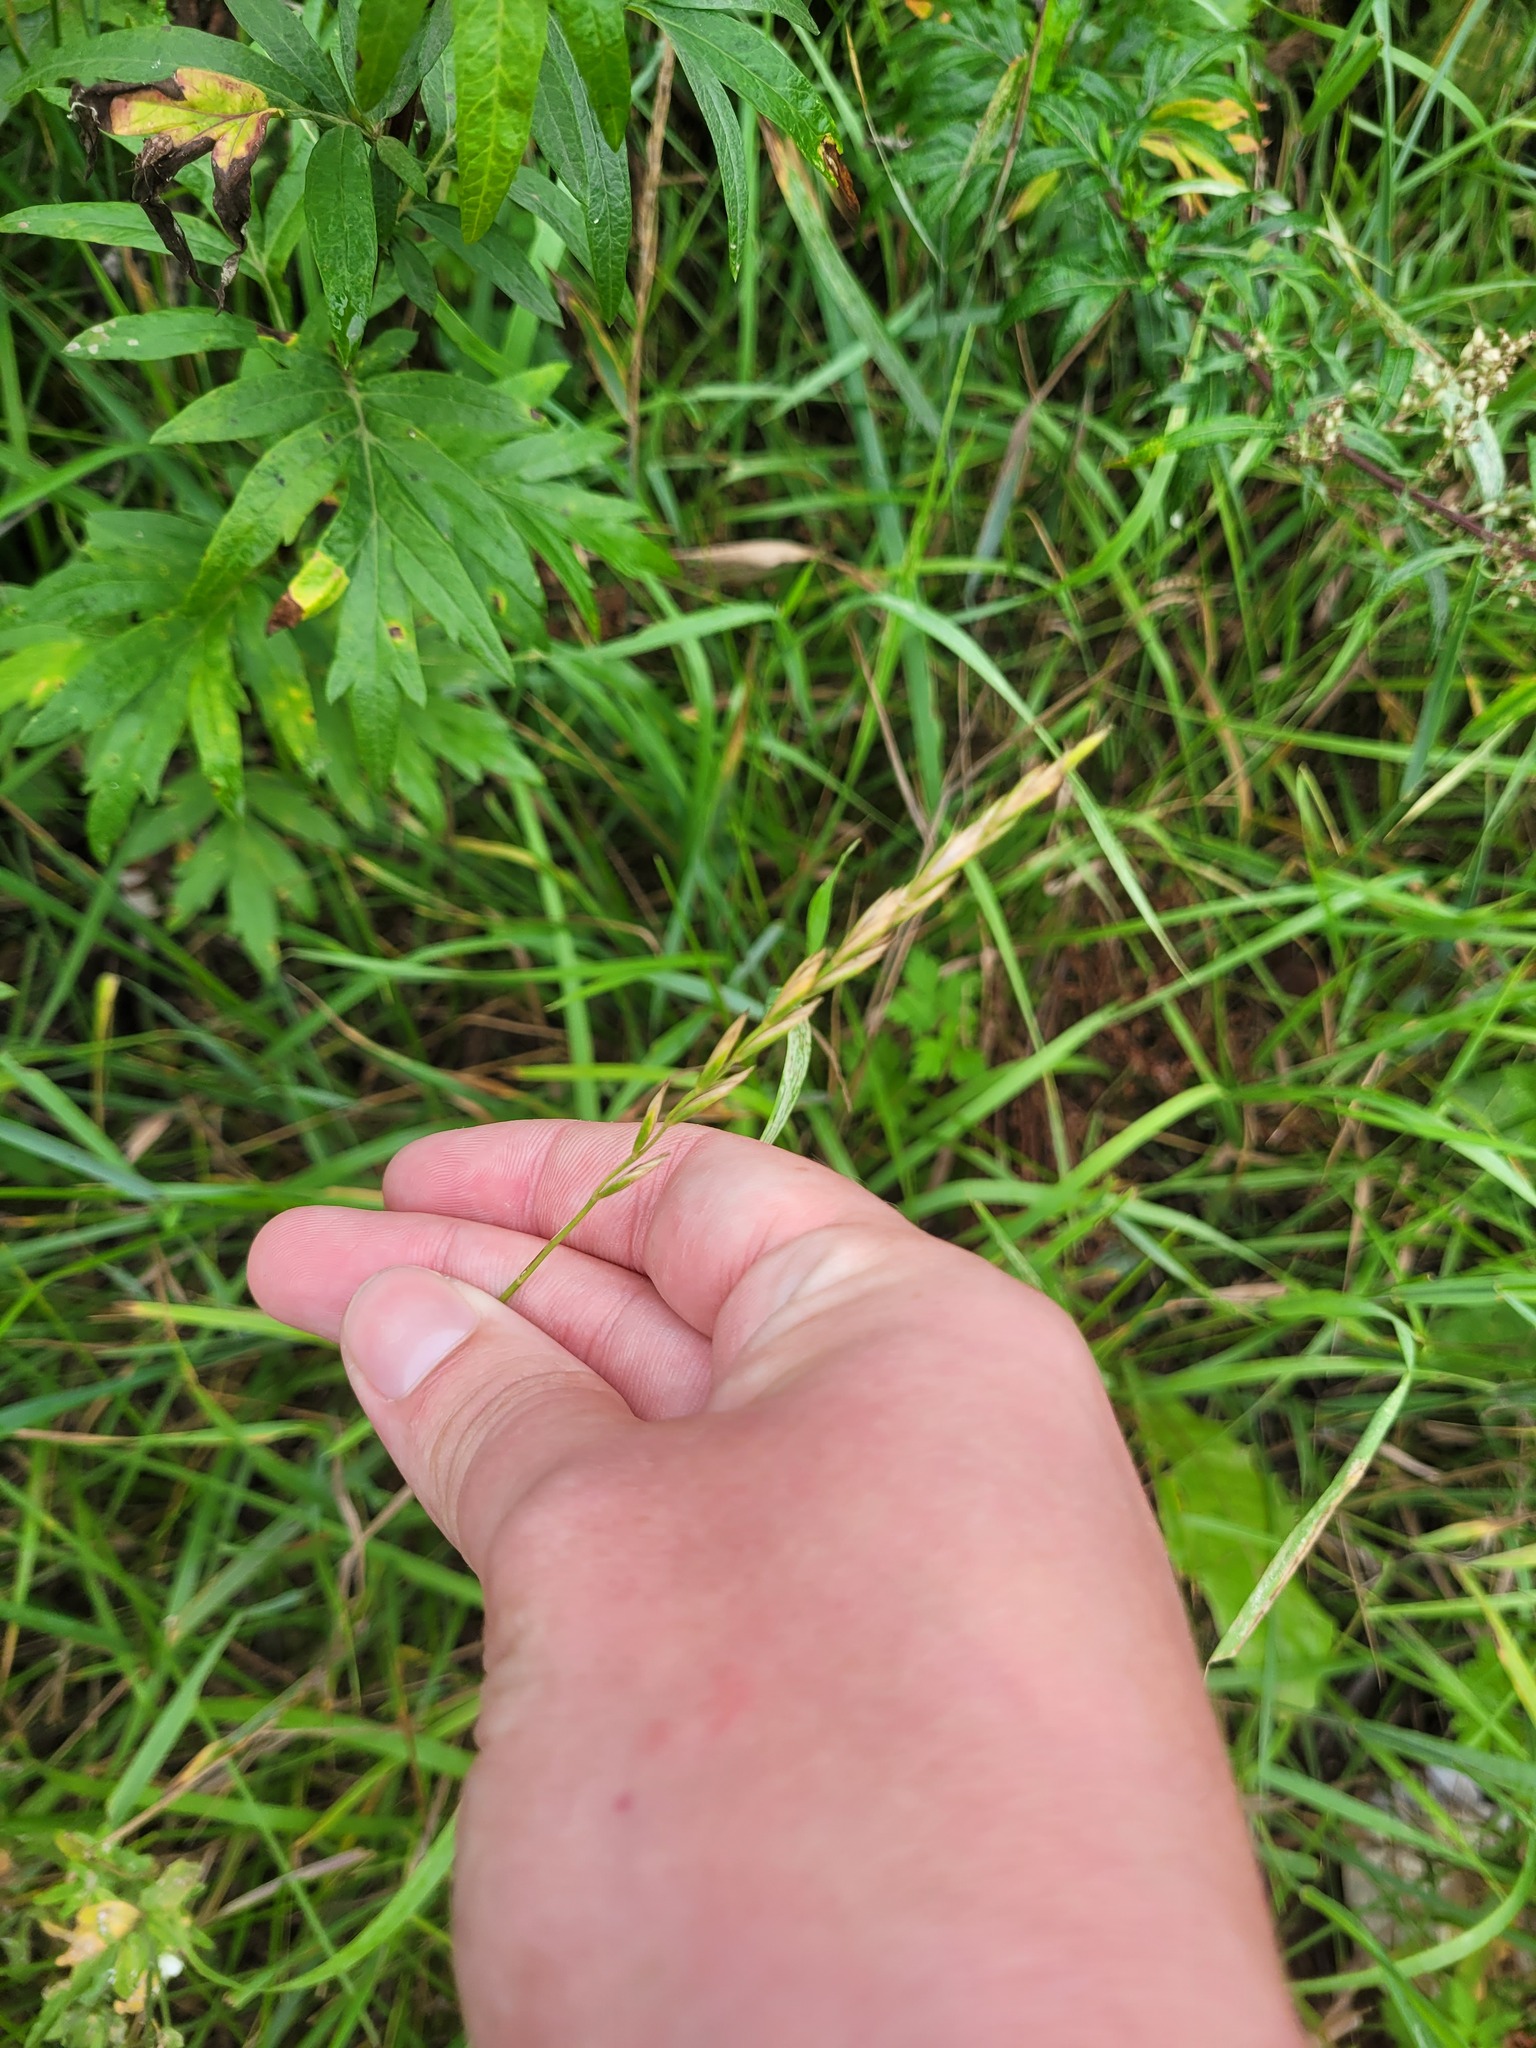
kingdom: Plantae
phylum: Tracheophyta
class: Liliopsida
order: Poales
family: Poaceae
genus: Elymus
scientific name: Elymus repens
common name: Quackgrass
